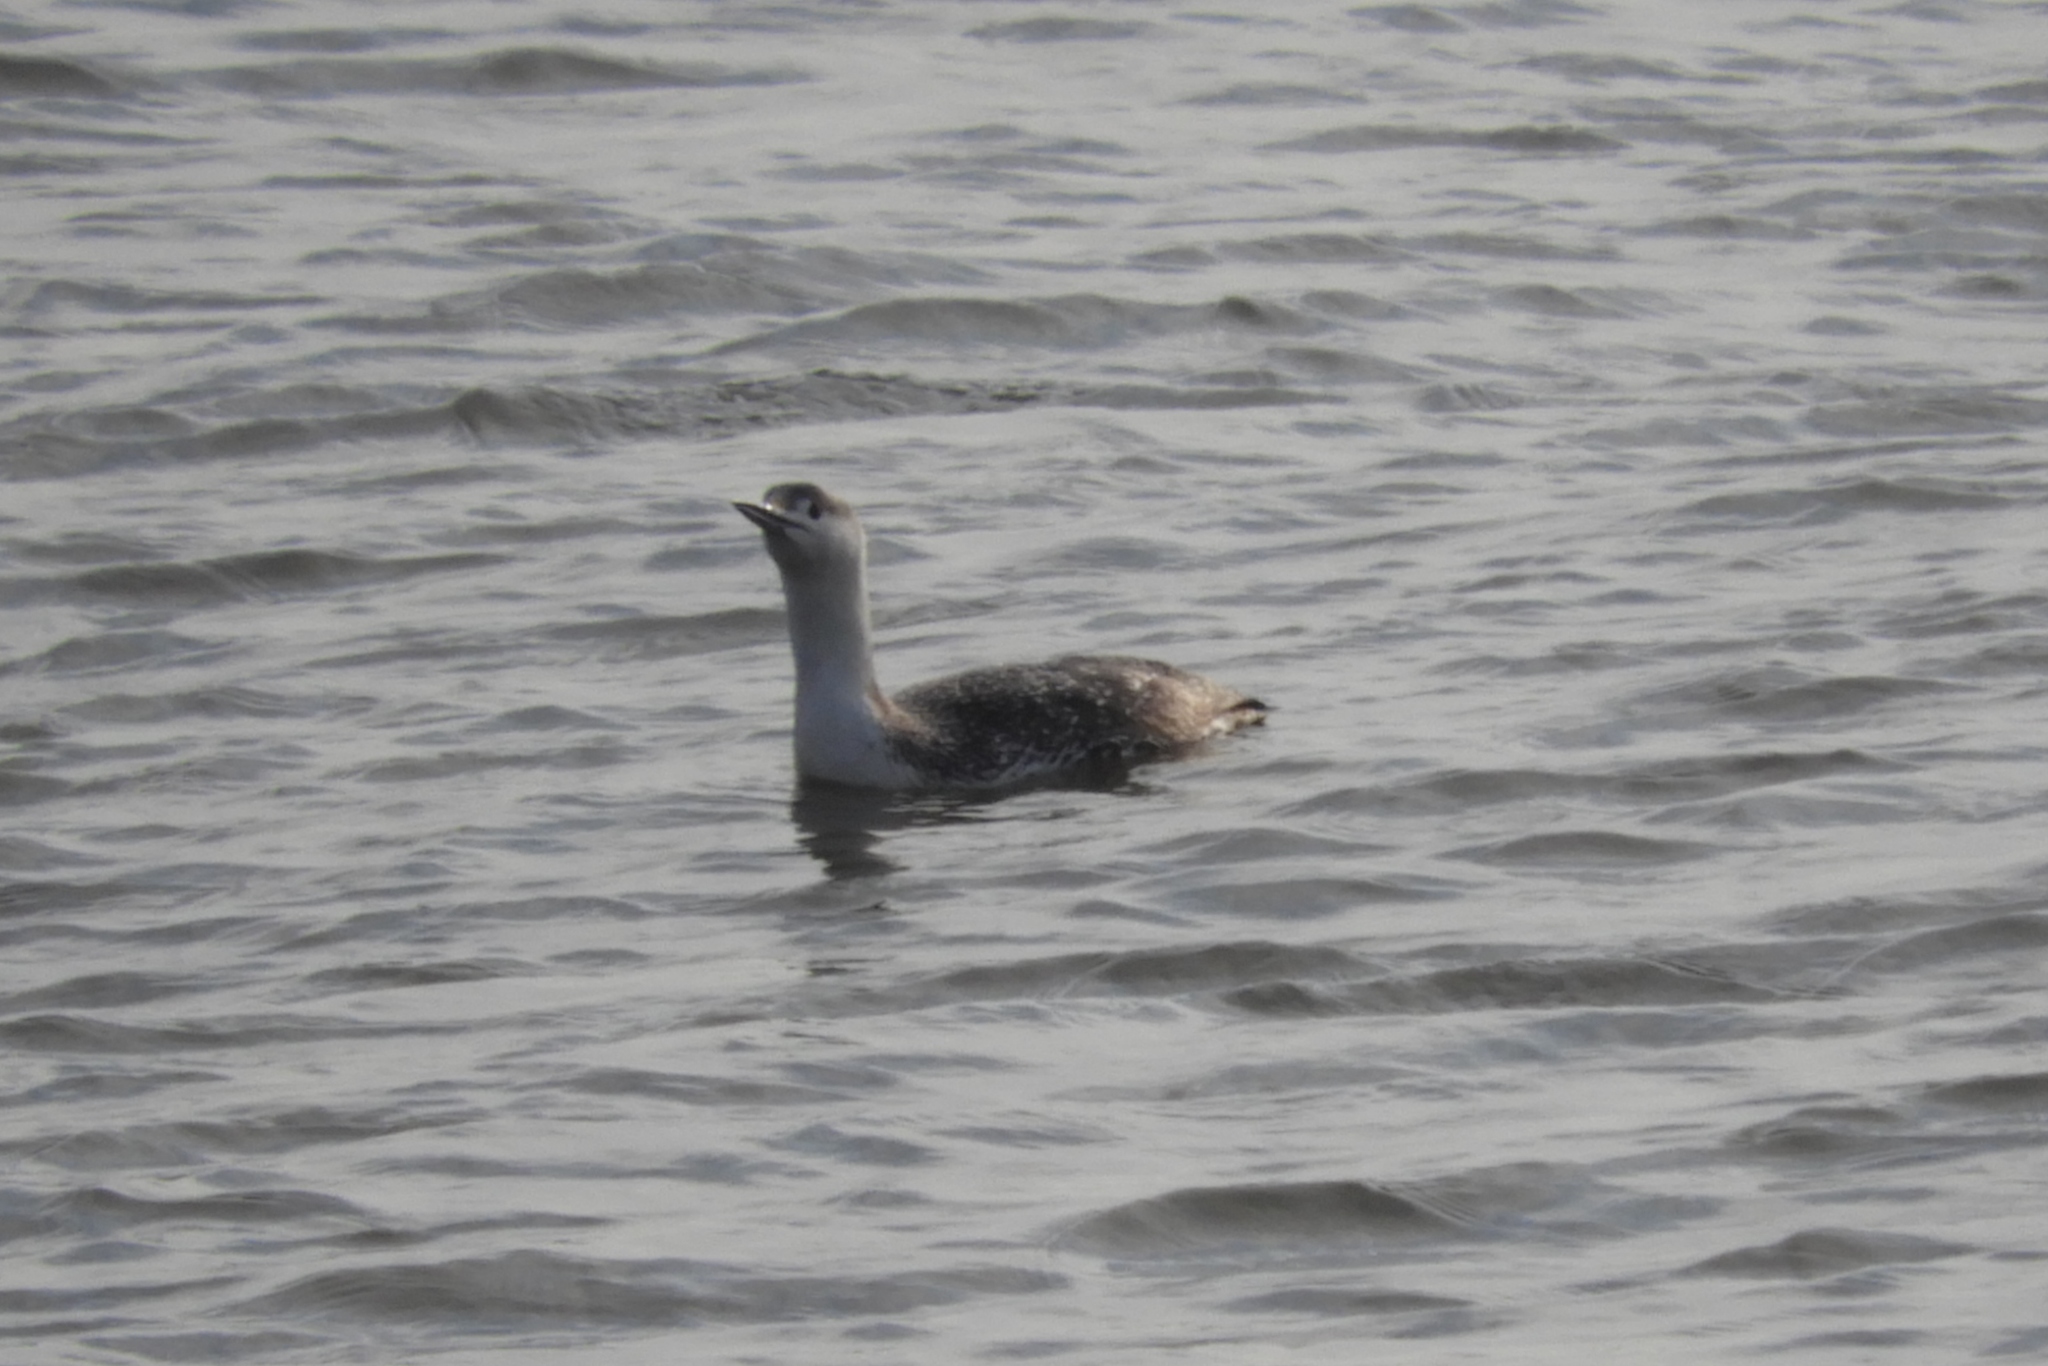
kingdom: Animalia
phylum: Chordata
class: Aves
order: Gaviiformes
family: Gaviidae
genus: Gavia
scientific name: Gavia stellata
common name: Red-throated loon
